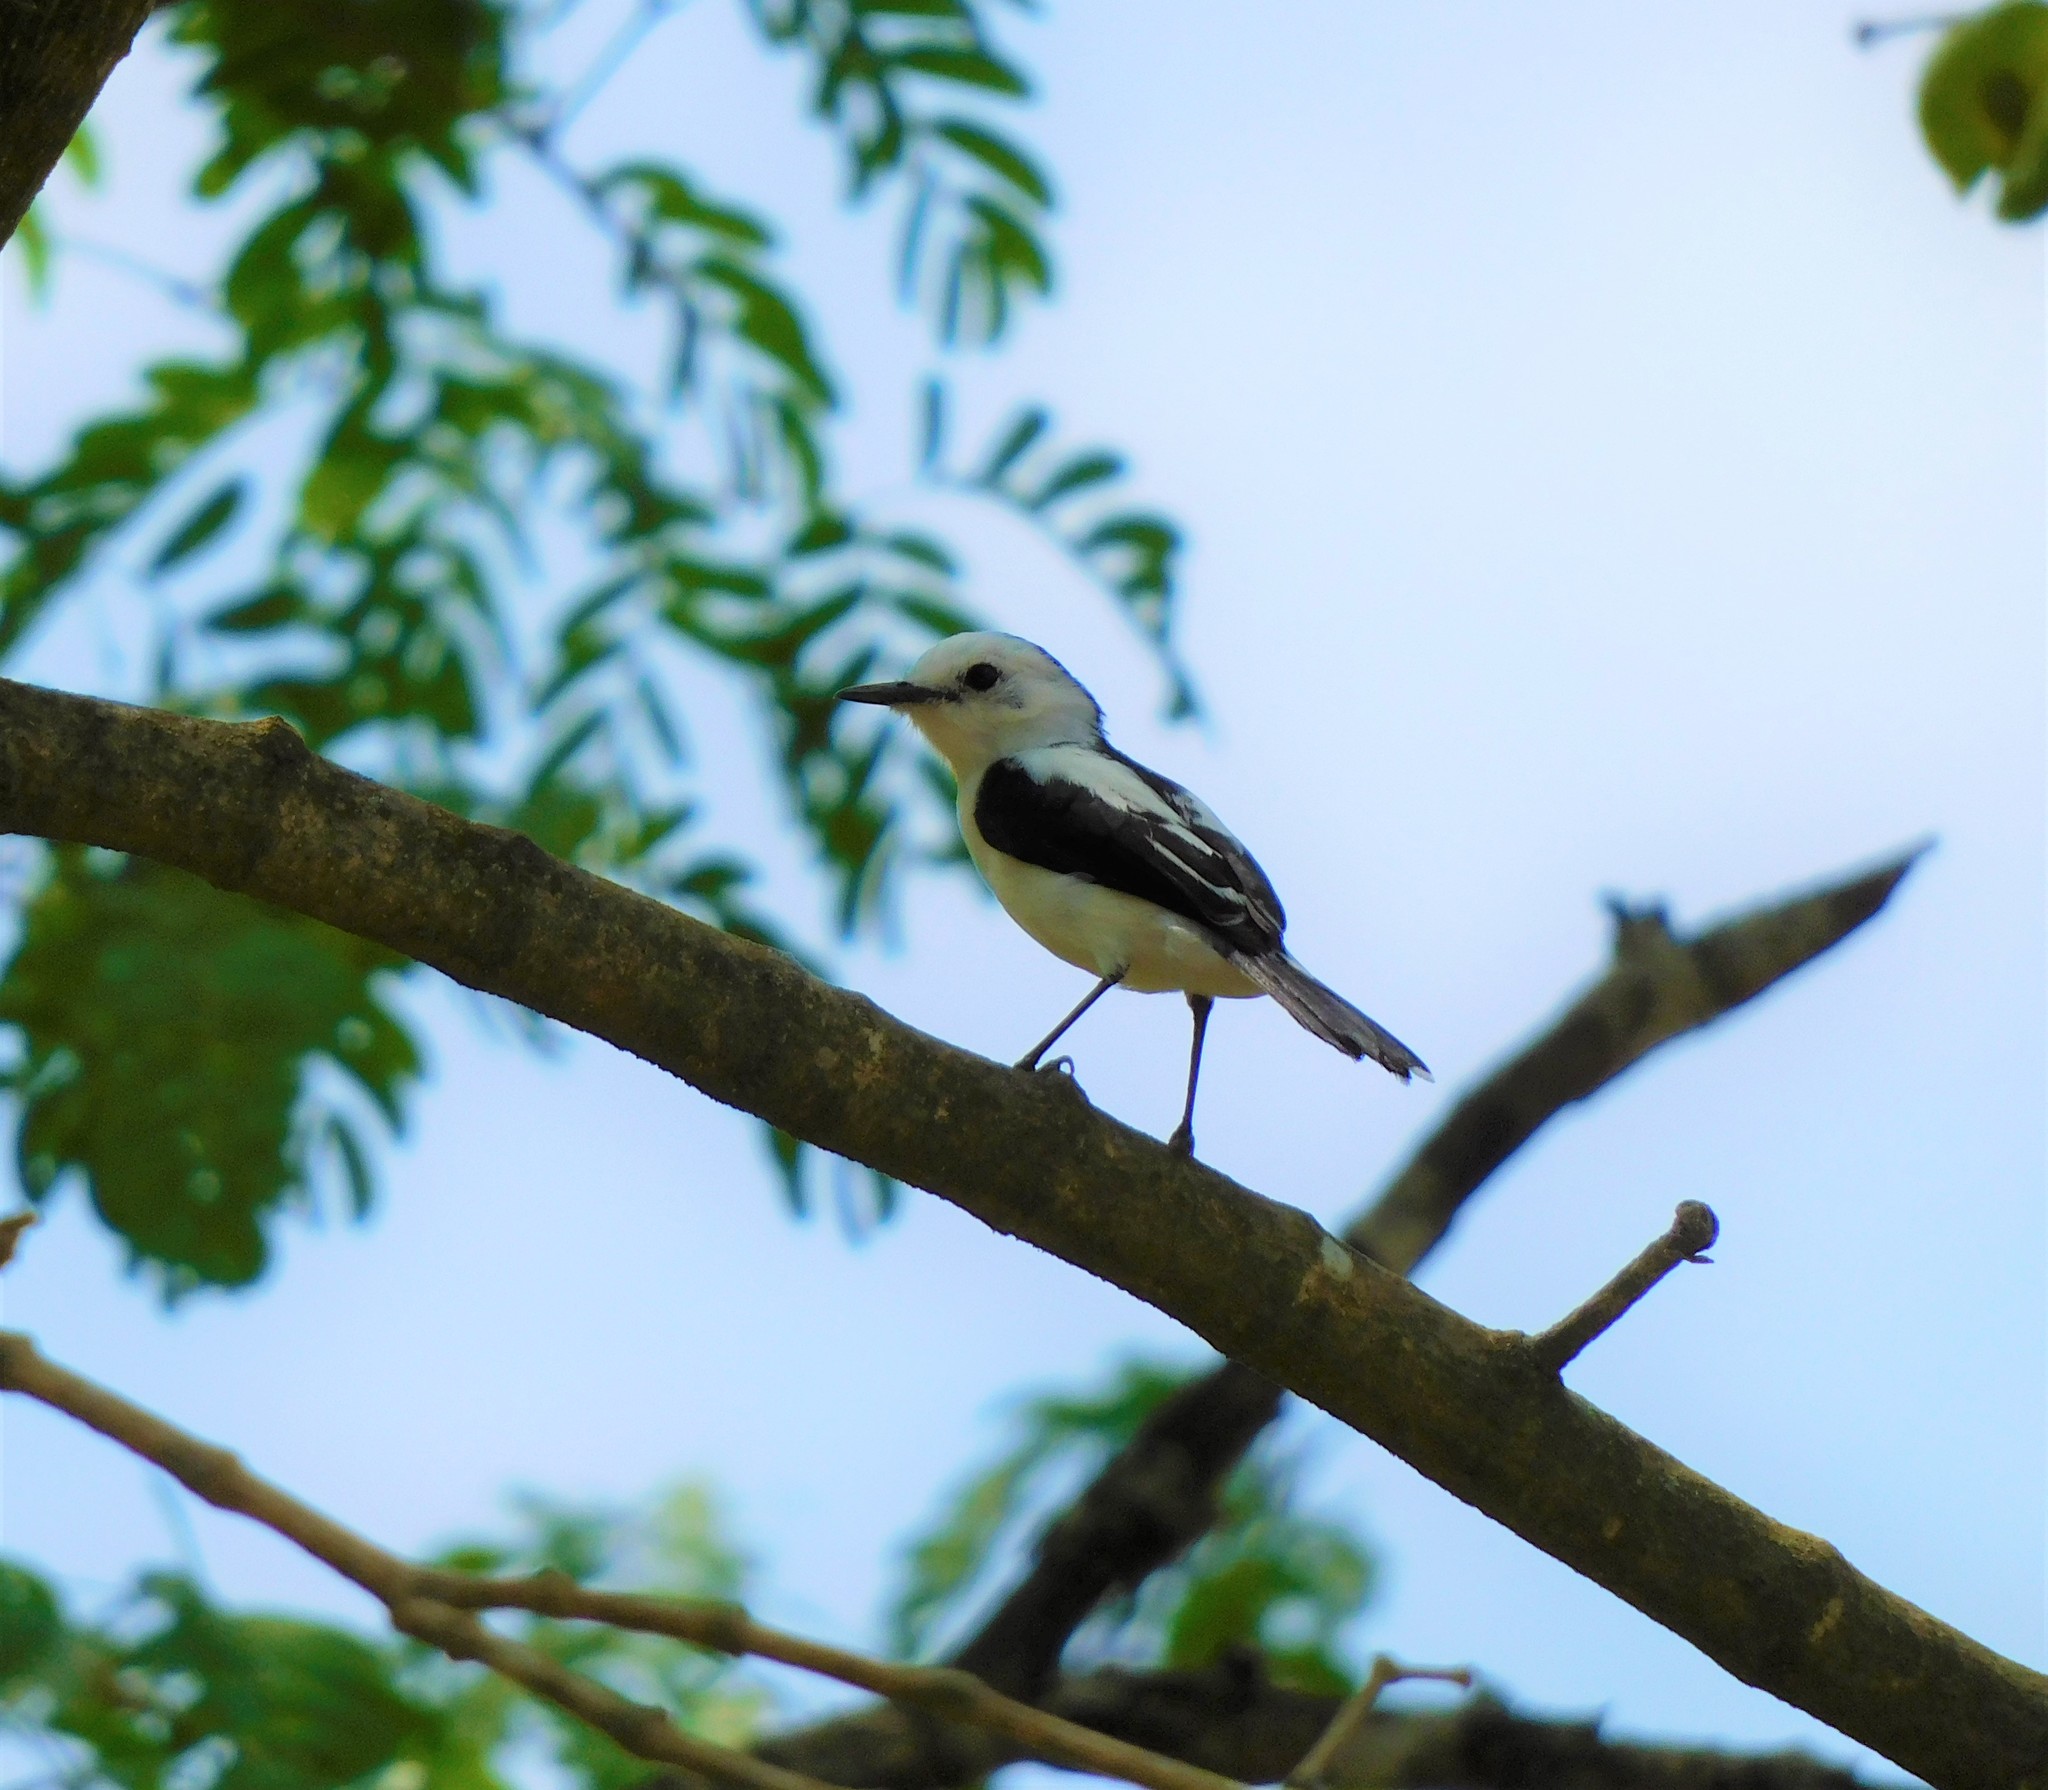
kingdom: Animalia
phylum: Chordata
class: Aves
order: Passeriformes
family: Tyrannidae
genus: Fluvicola
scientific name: Fluvicola pica
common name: Pied water-tyrant
